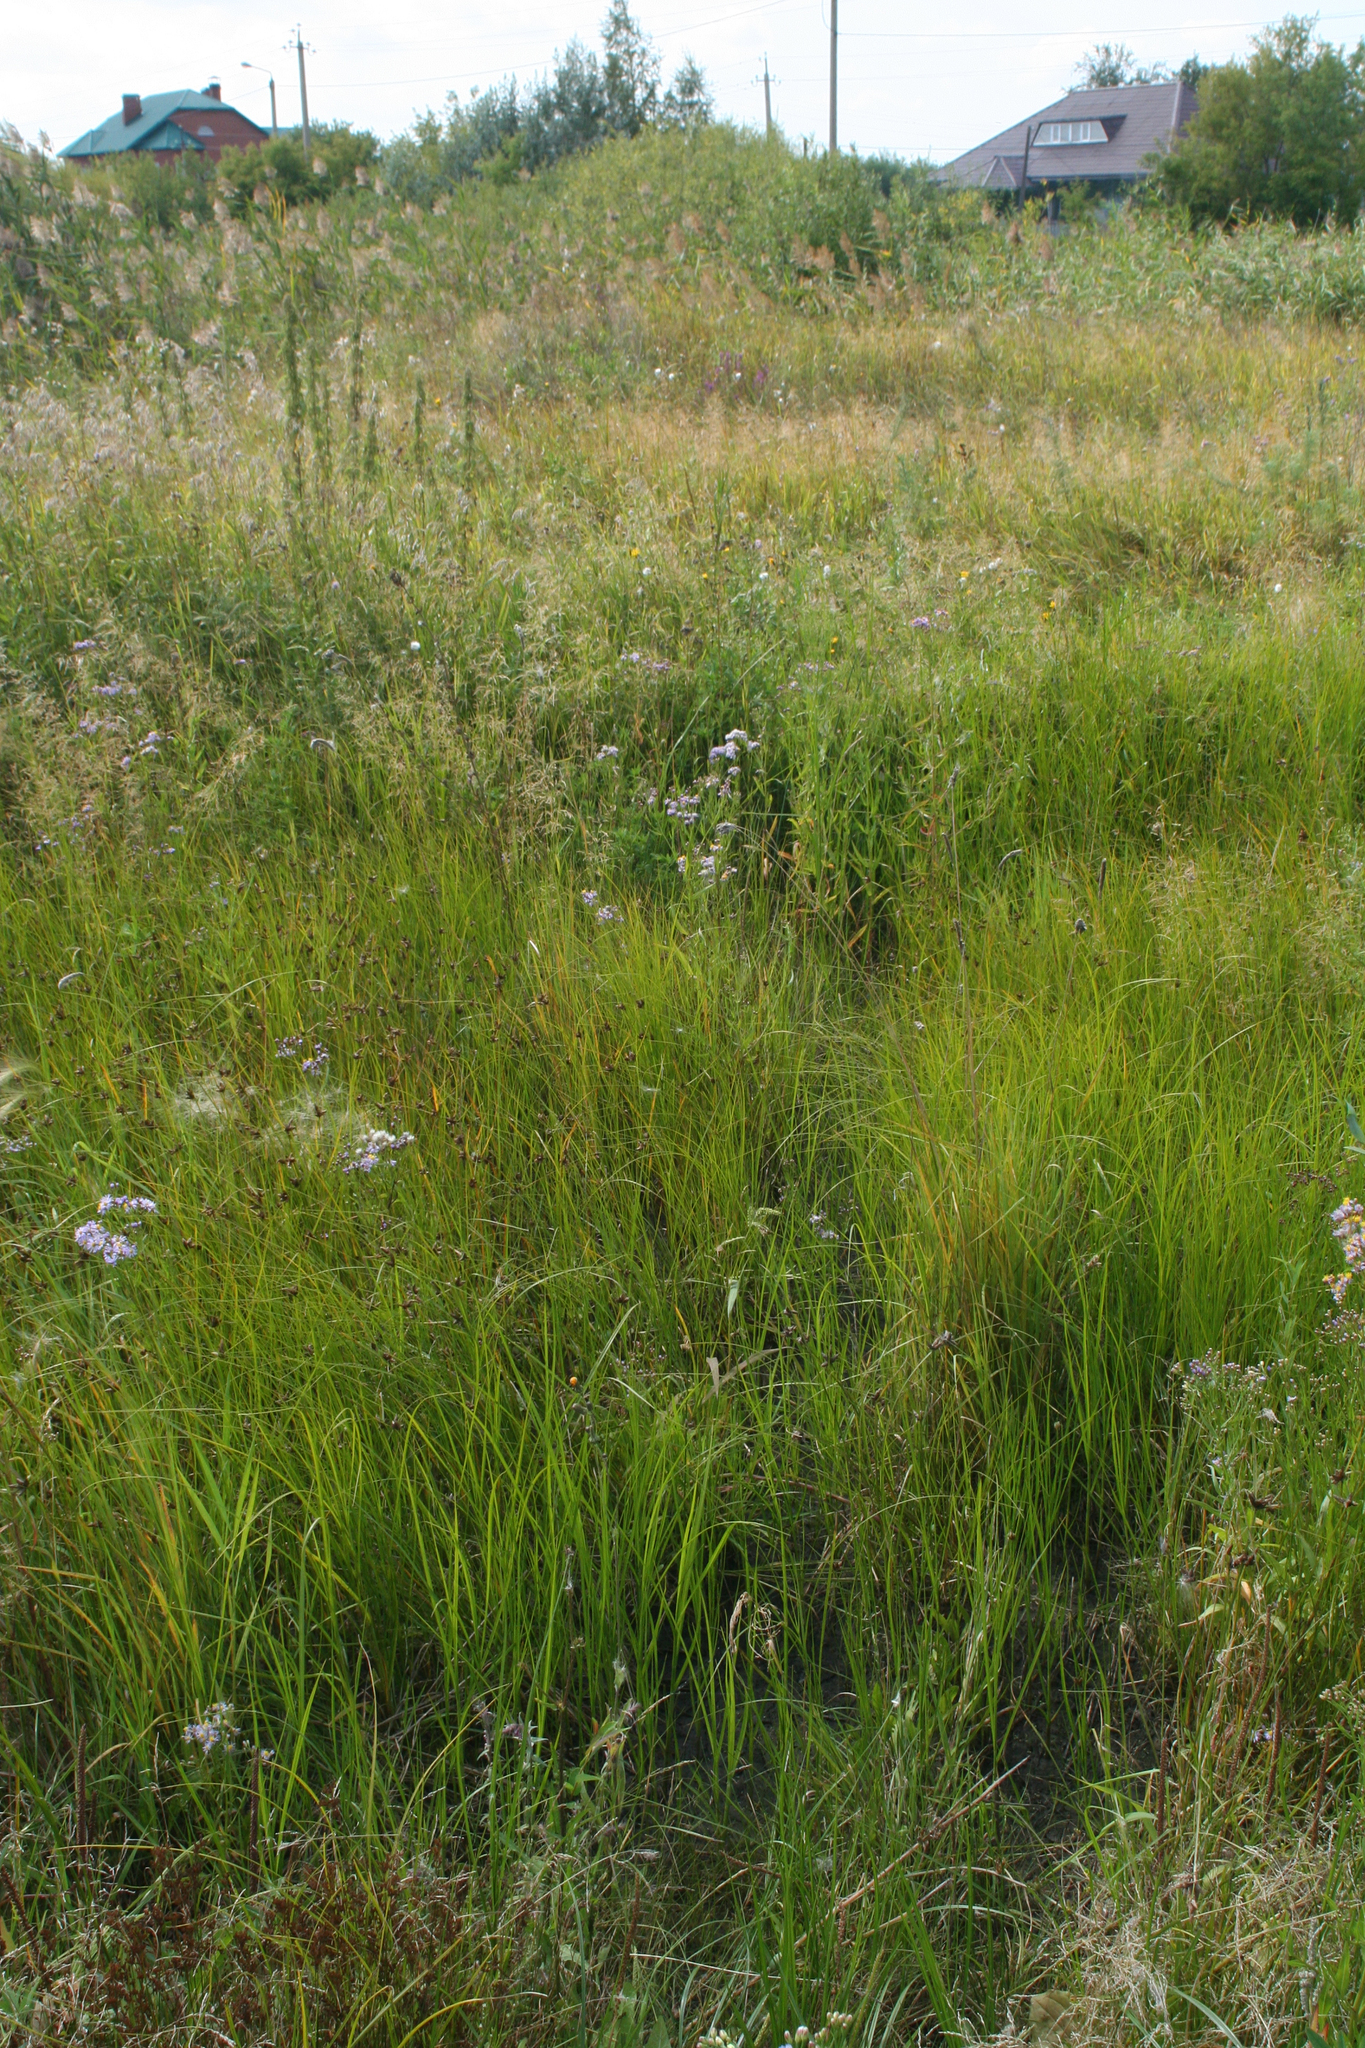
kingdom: Animalia
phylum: Arthropoda
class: Insecta
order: Odonata
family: Libellulidae
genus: Sympetrum
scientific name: Sympetrum pedemontanum
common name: Banded darter
